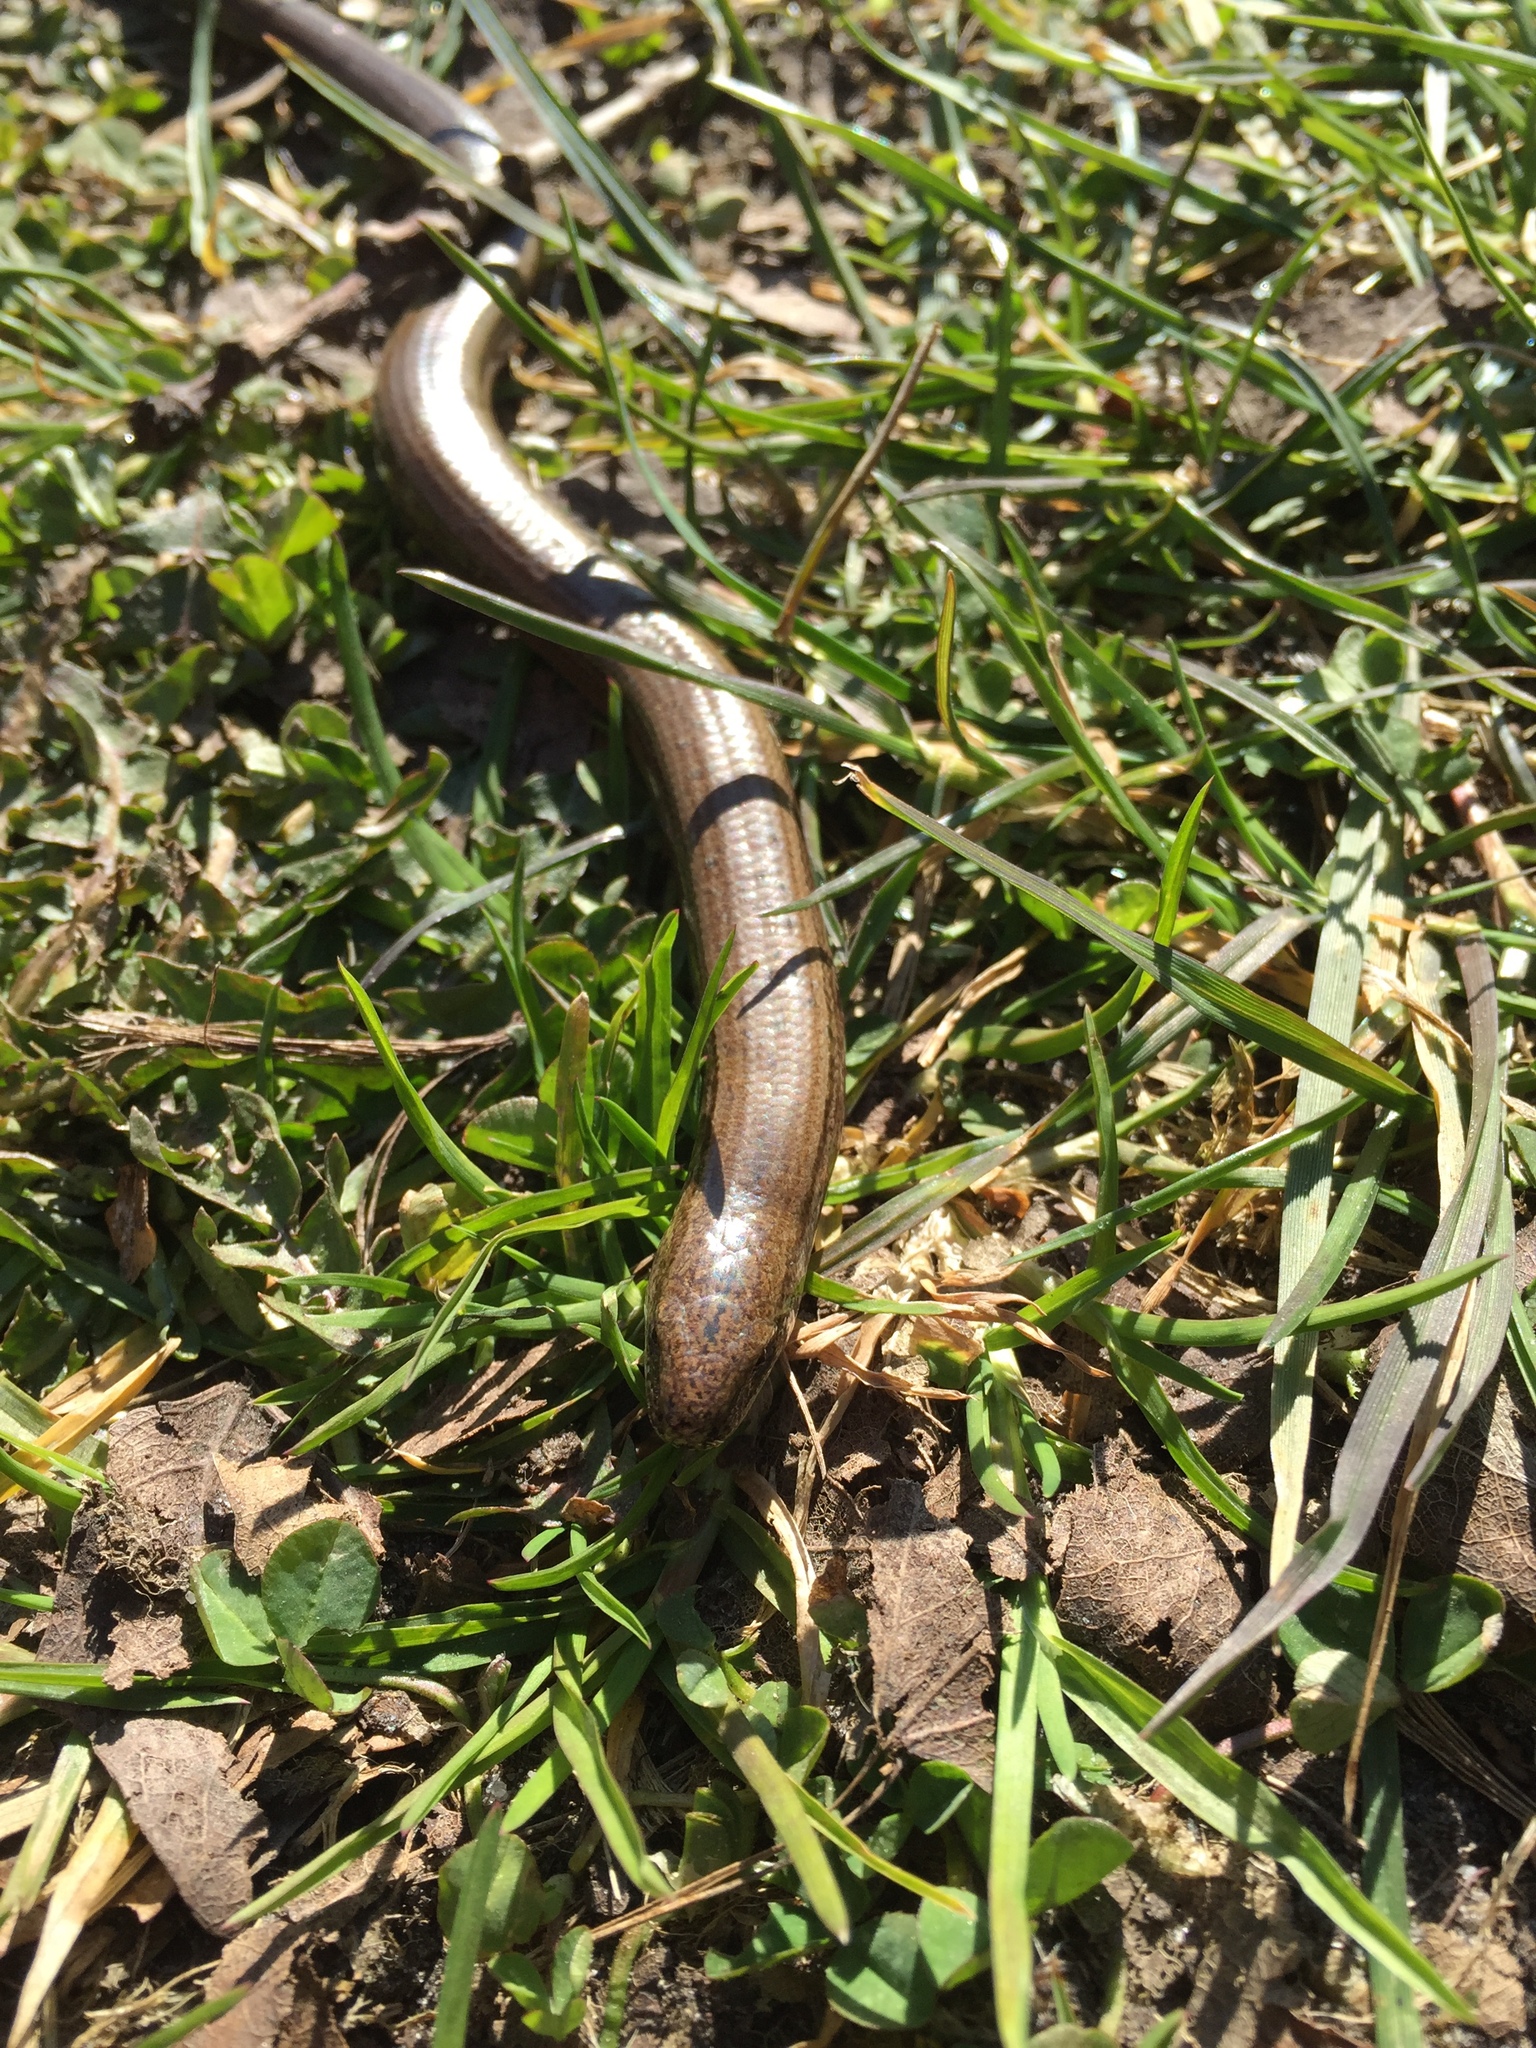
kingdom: Animalia
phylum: Chordata
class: Squamata
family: Anguidae
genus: Anguis
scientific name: Anguis fragilis
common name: Slow worm
